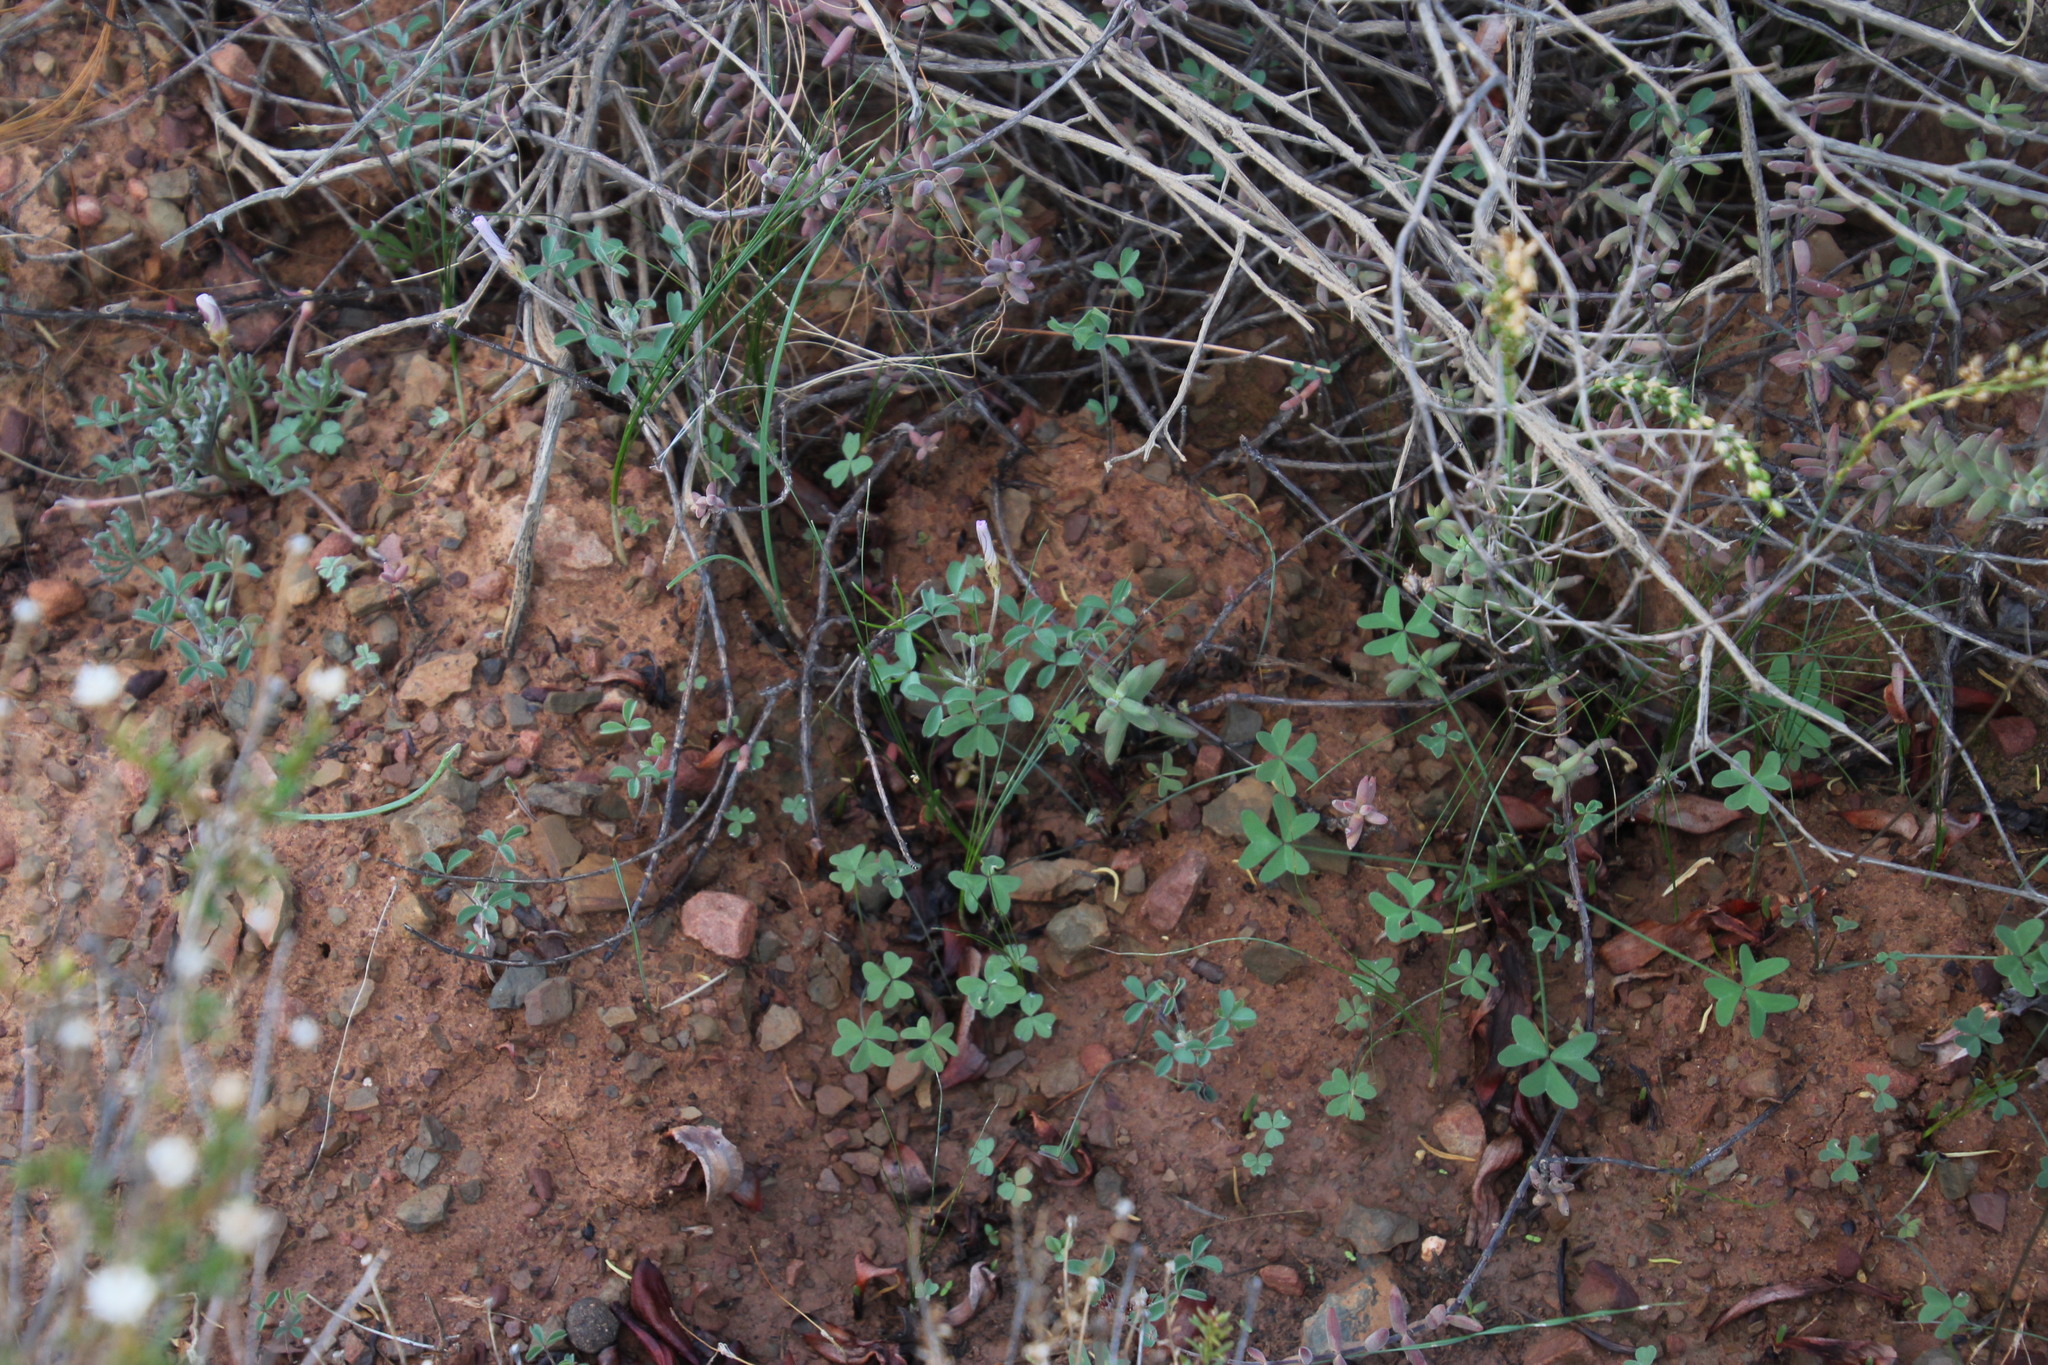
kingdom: Plantae
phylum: Tracheophyta
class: Magnoliopsida
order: Oxalidales
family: Oxalidaceae
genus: Oxalis
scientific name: Oxalis pes-caprae
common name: Bermuda-buttercup
